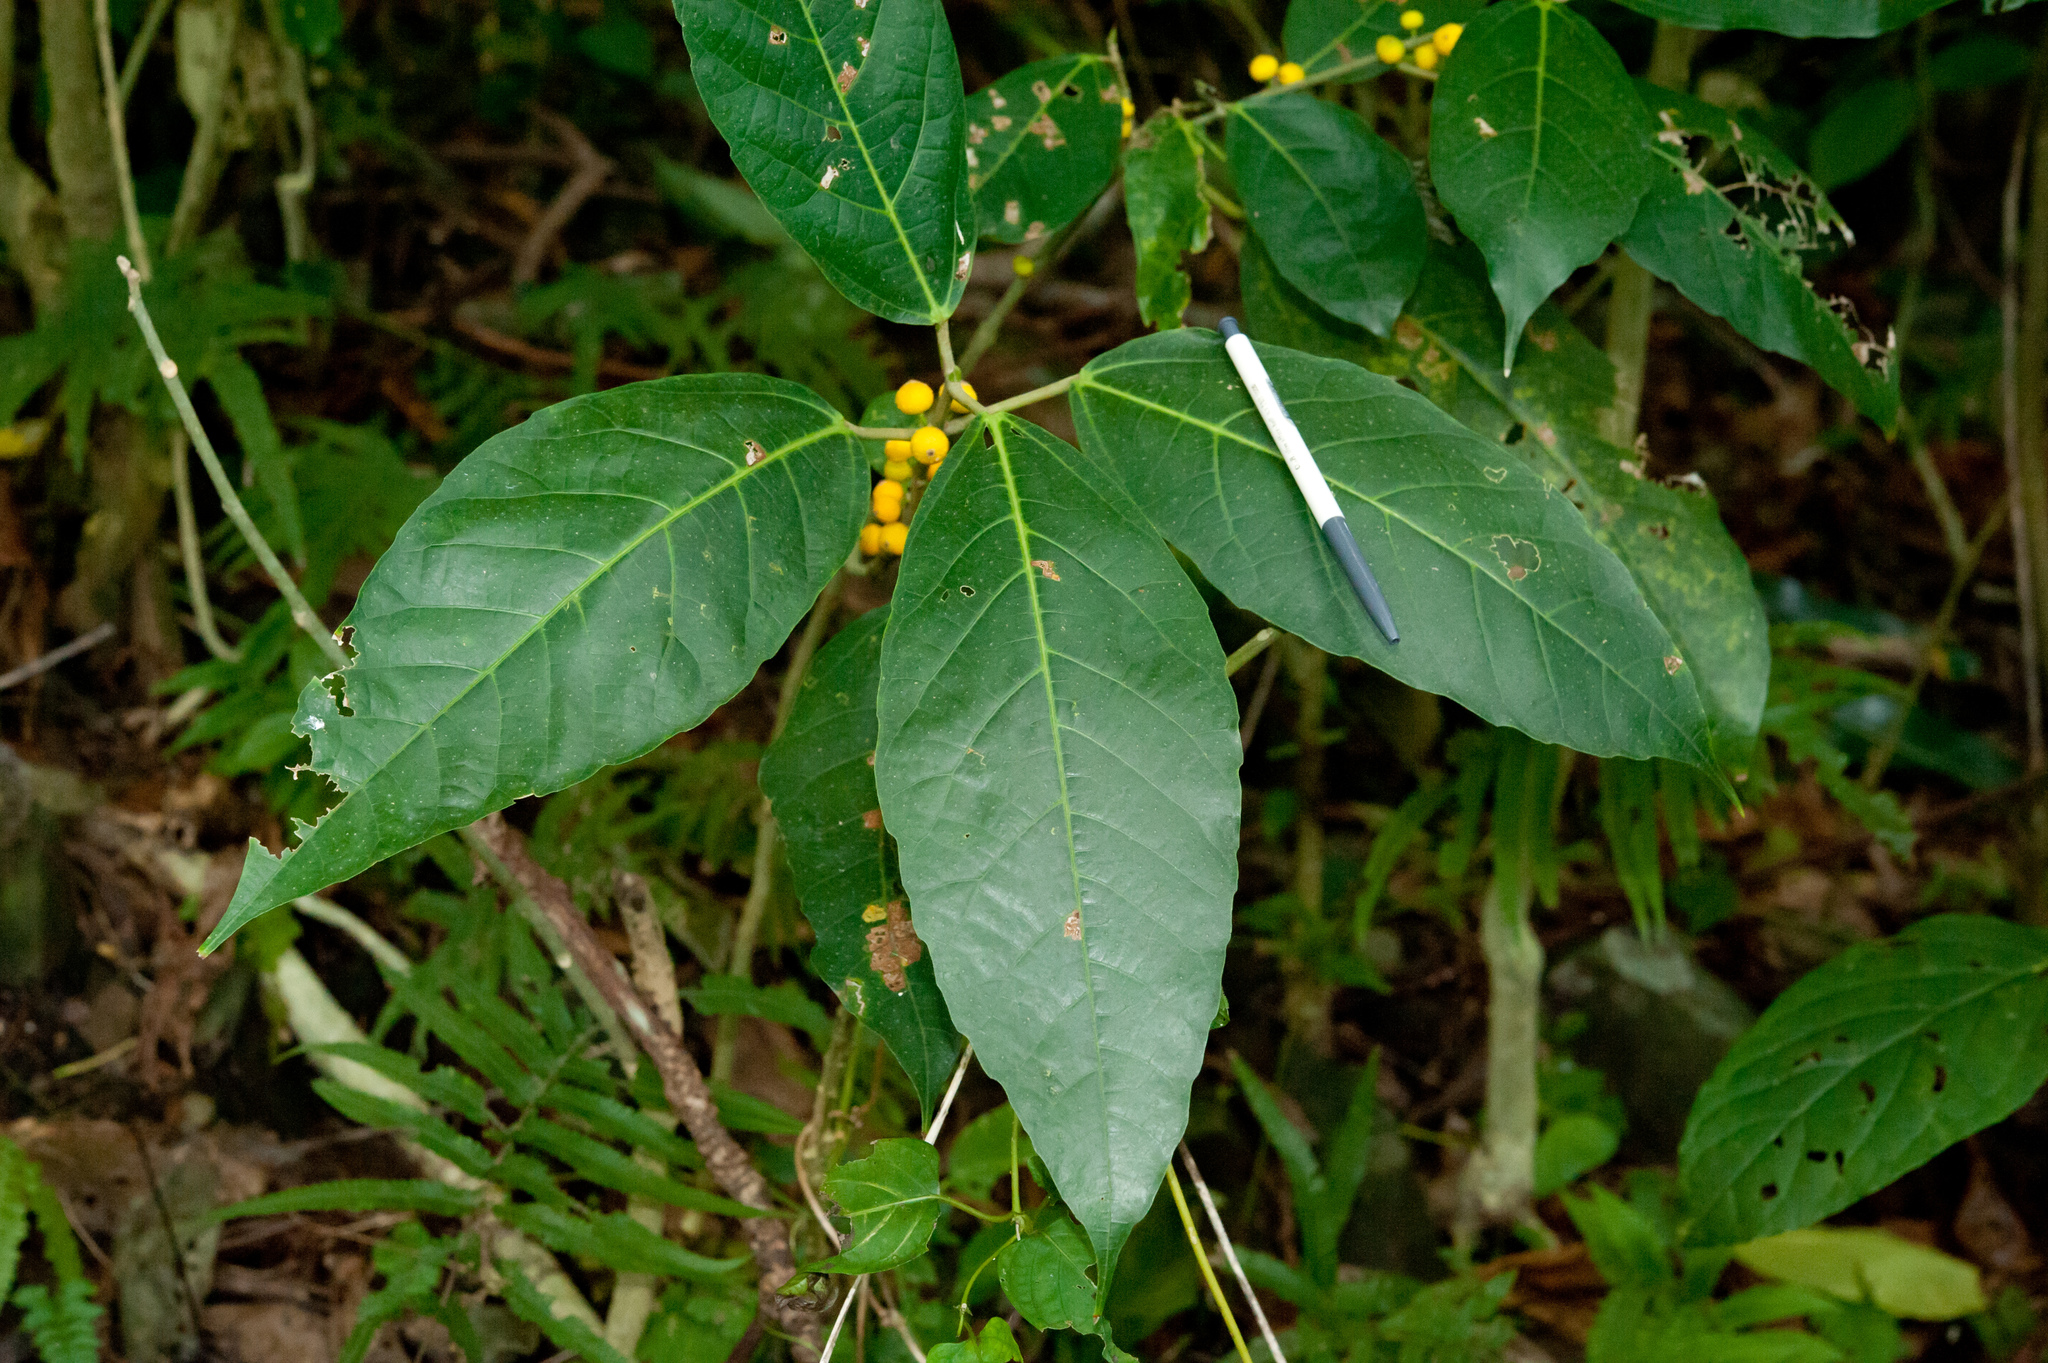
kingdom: Plantae
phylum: Tracheophyta
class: Magnoliopsida
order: Rosales
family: Moraceae
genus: Ficus
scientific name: Ficus cumingii
